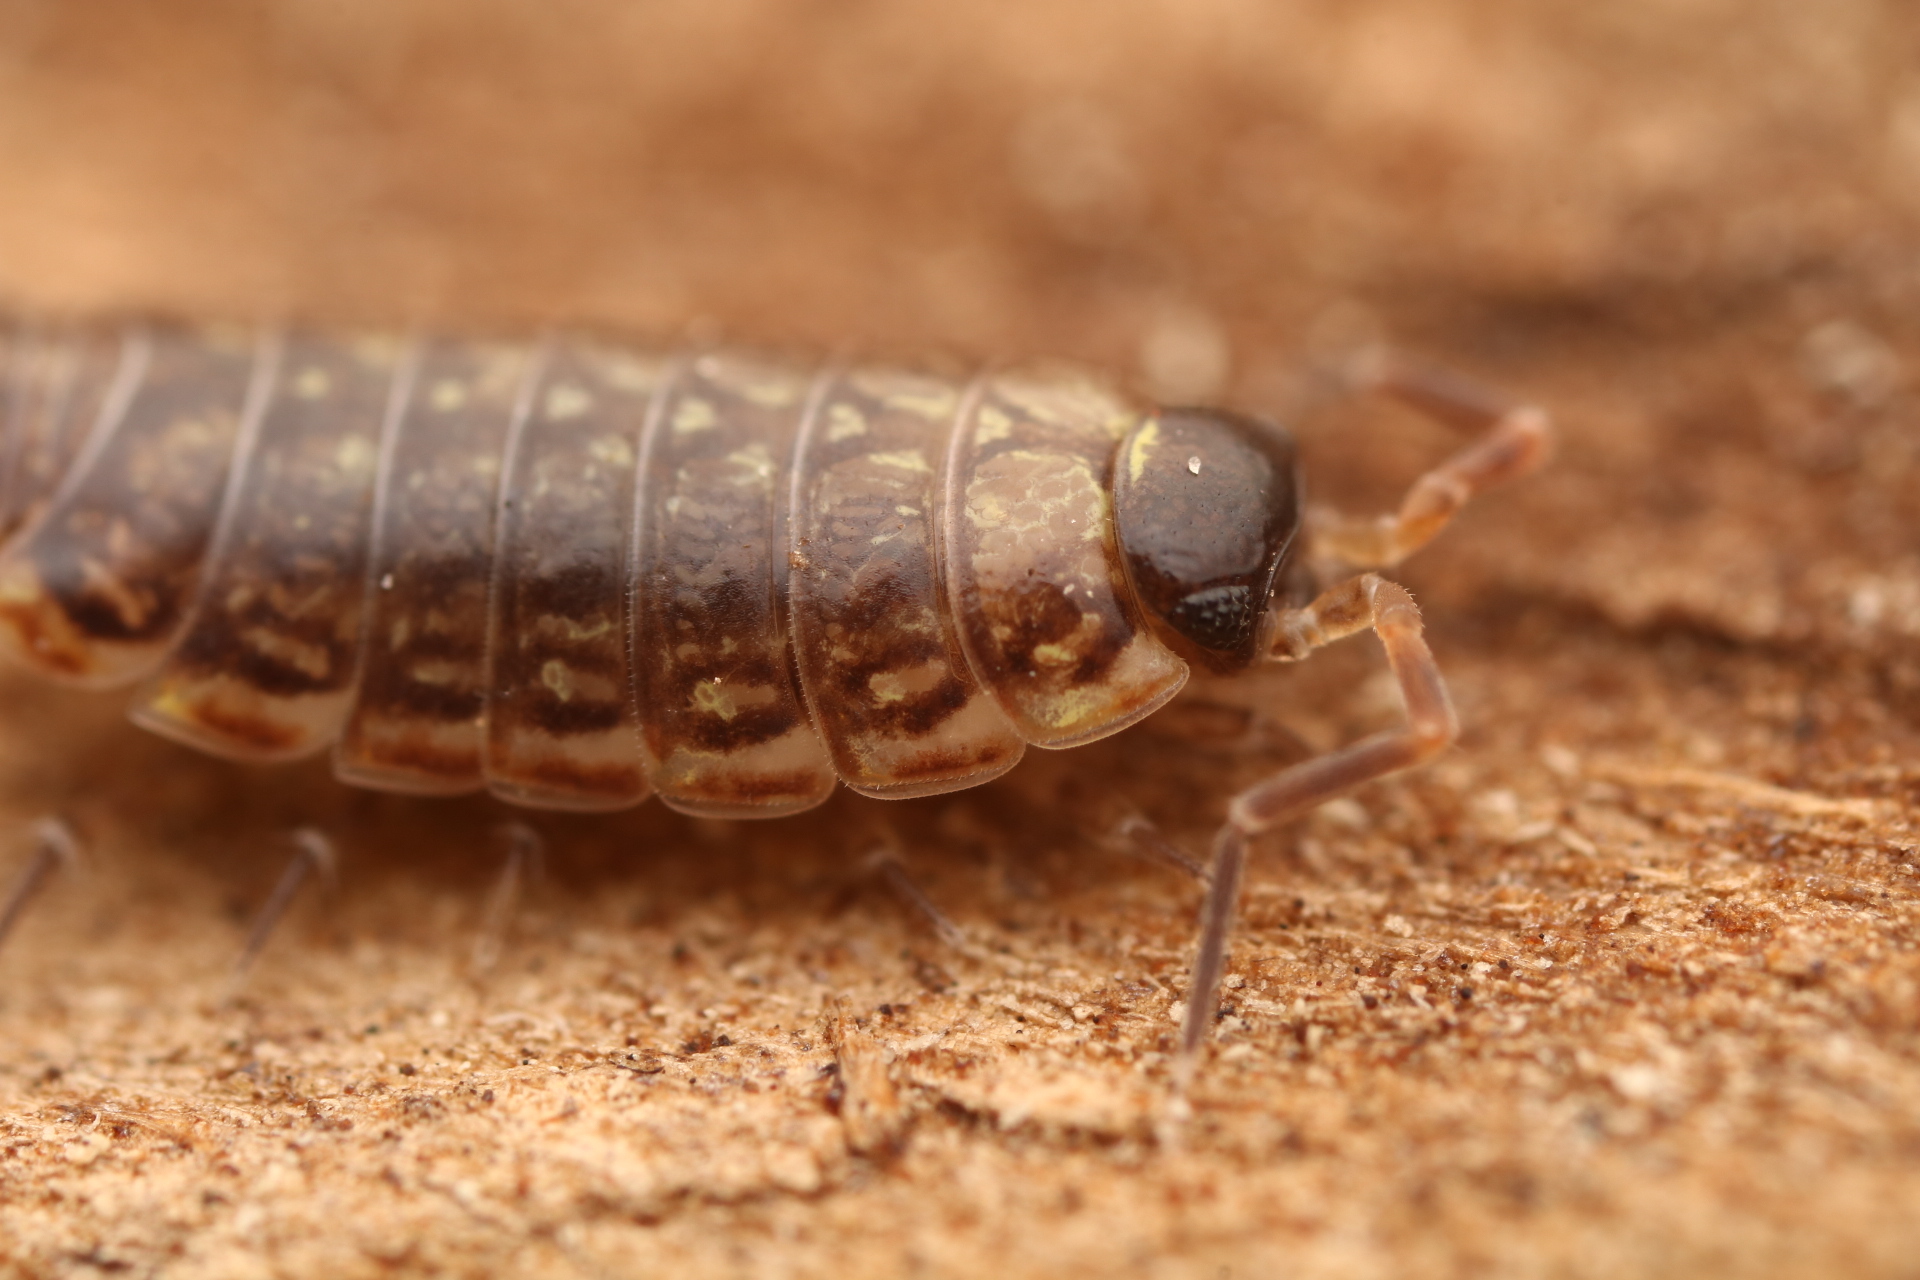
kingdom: Animalia
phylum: Arthropoda
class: Malacostraca
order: Isopoda
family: Philosciidae
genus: Philoscia
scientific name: Philoscia muscorum
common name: Common striped woodlouse
